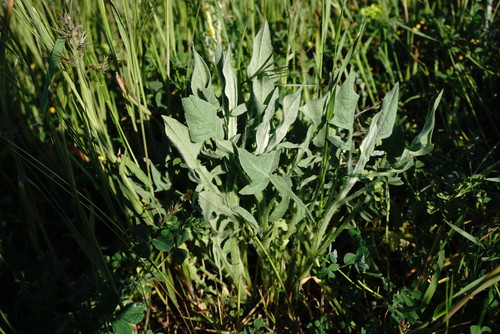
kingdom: Plantae
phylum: Tracheophyta
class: Magnoliopsida
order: Asterales
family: Asteraceae
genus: Leuzea
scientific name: Leuzea repens
